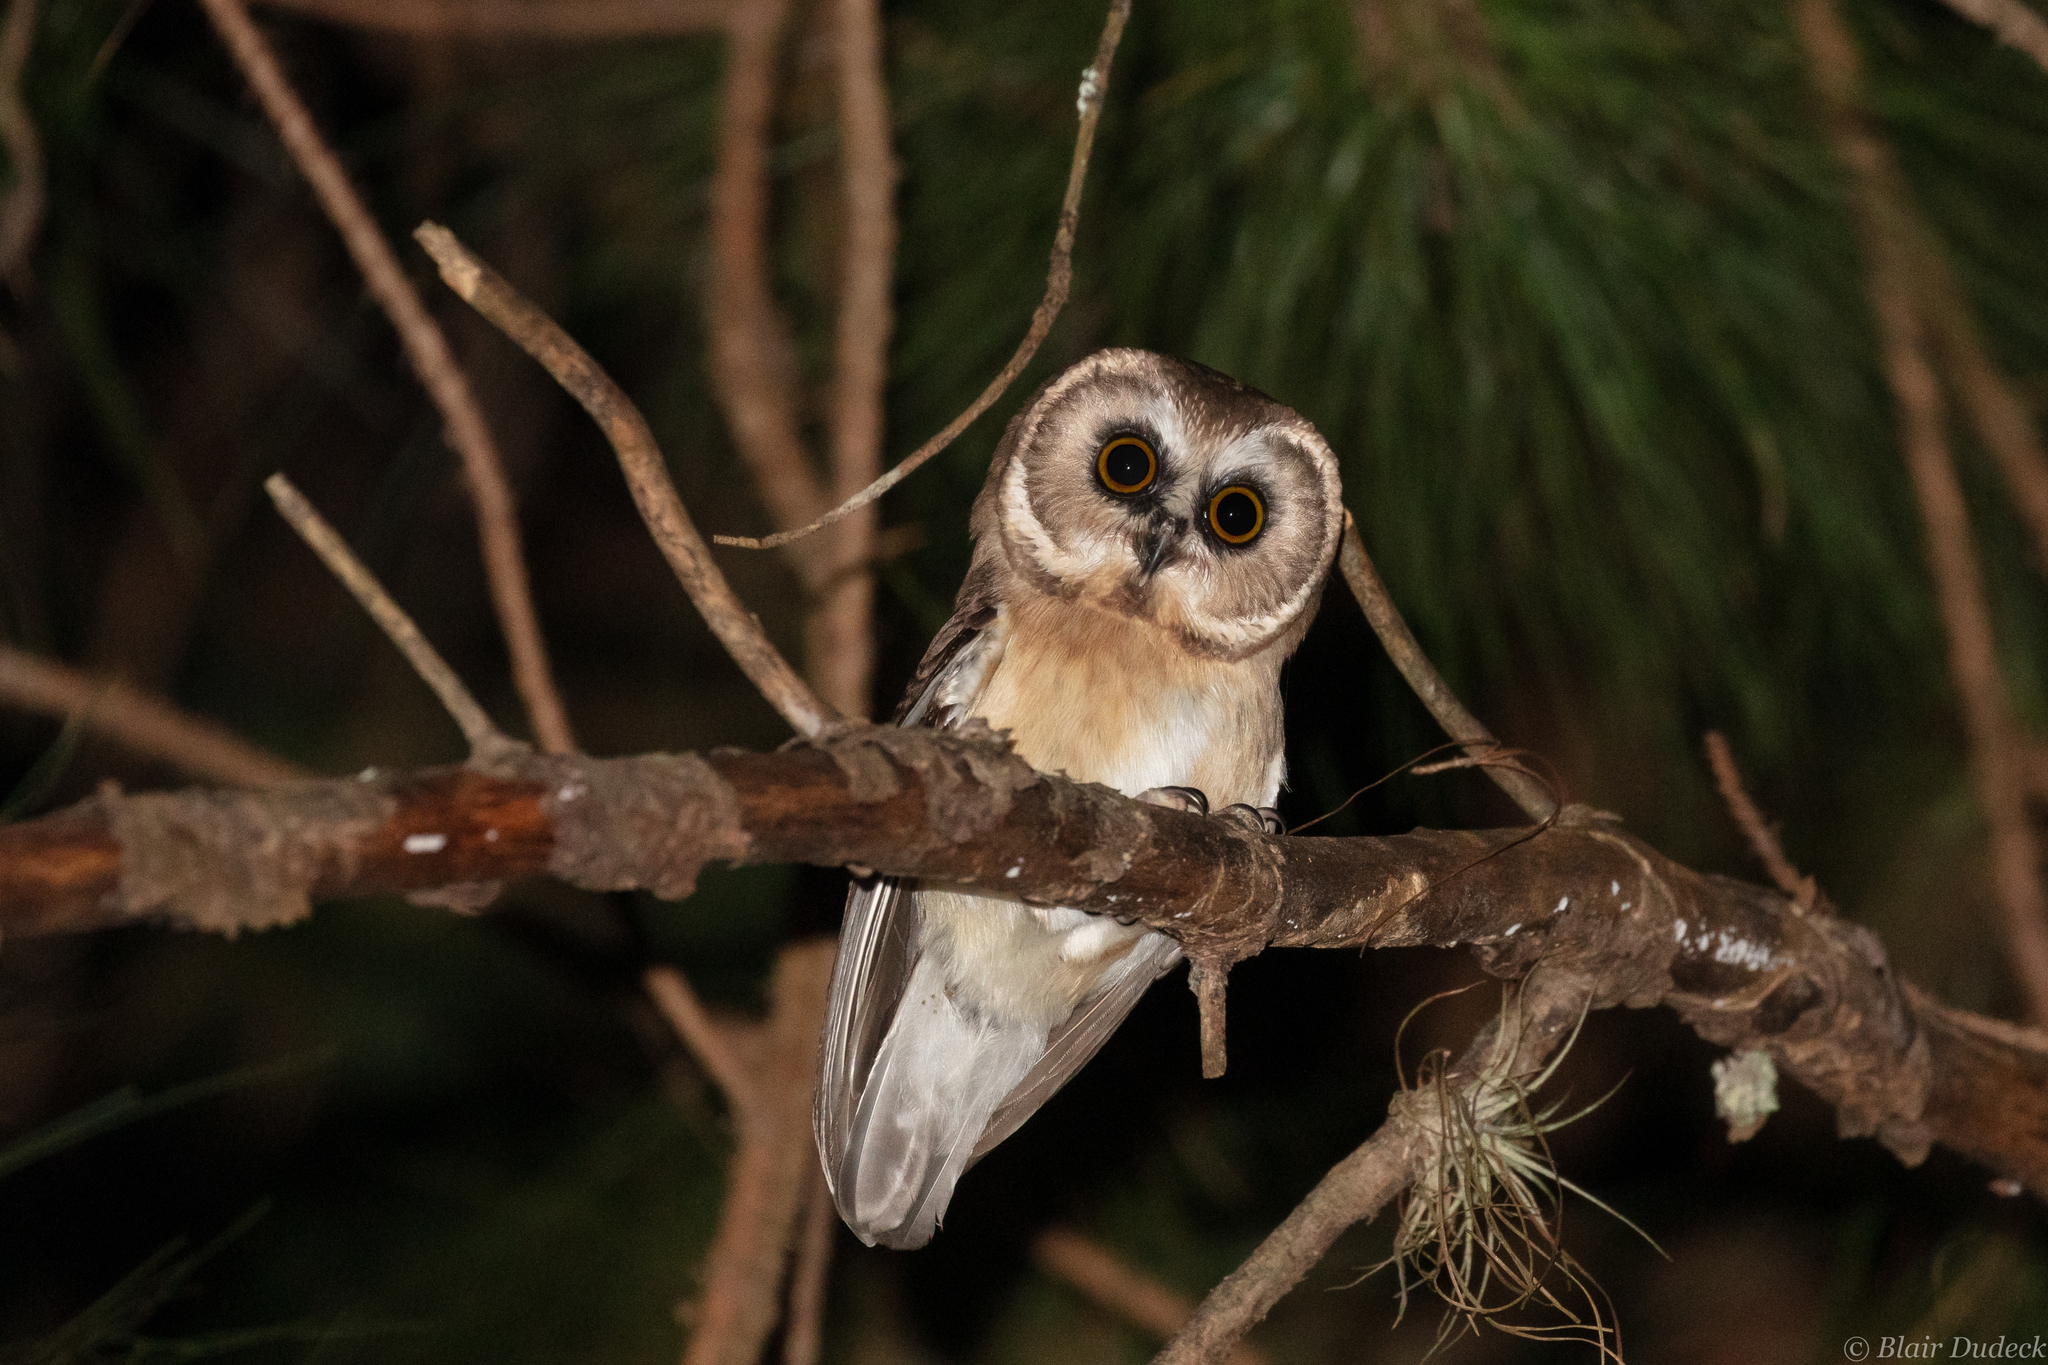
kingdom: Animalia
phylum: Chordata
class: Aves
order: Strigiformes
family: Strigidae
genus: Aegolius
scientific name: Aegolius ridgwayi
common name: Unspotted saw-whet owl
